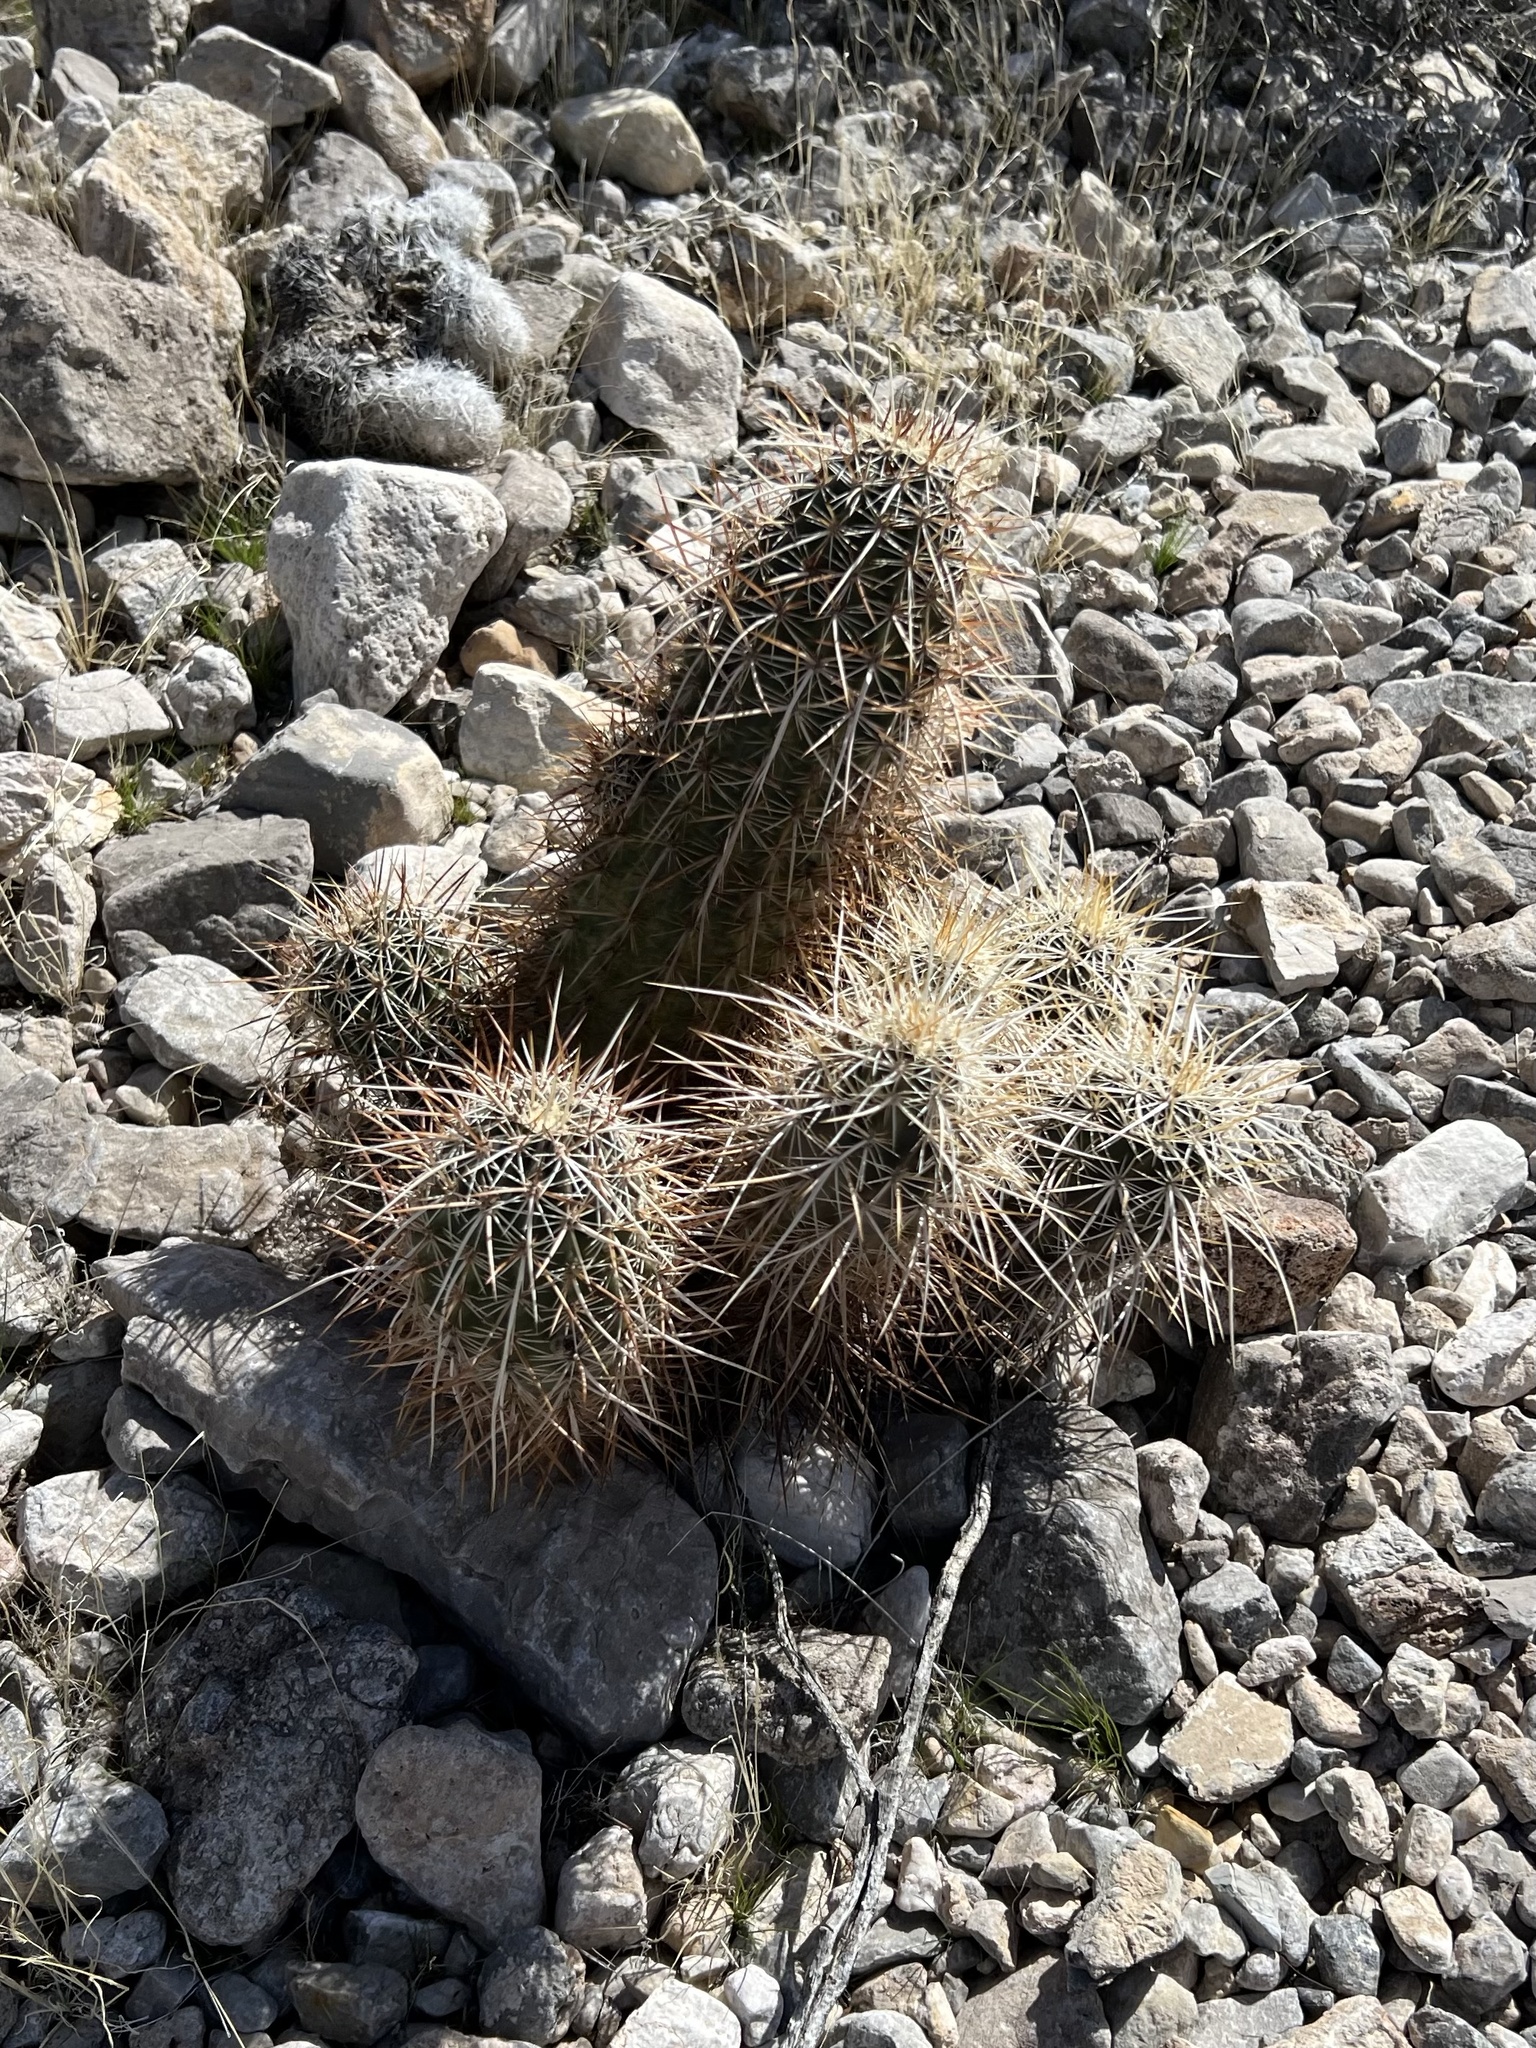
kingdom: Plantae
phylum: Tracheophyta
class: Magnoliopsida
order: Caryophyllales
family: Cactaceae
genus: Echinocereus
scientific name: Echinocereus engelmannii
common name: Engelmann's hedgehog cactus
